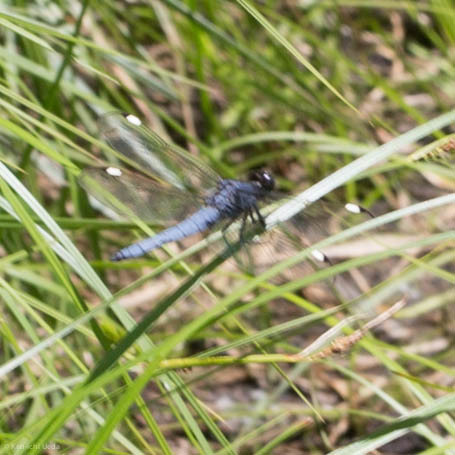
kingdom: Animalia
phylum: Arthropoda
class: Insecta
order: Odonata
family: Libellulidae
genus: Libellula
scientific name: Libellula cyanea
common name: Spangled skimmer
